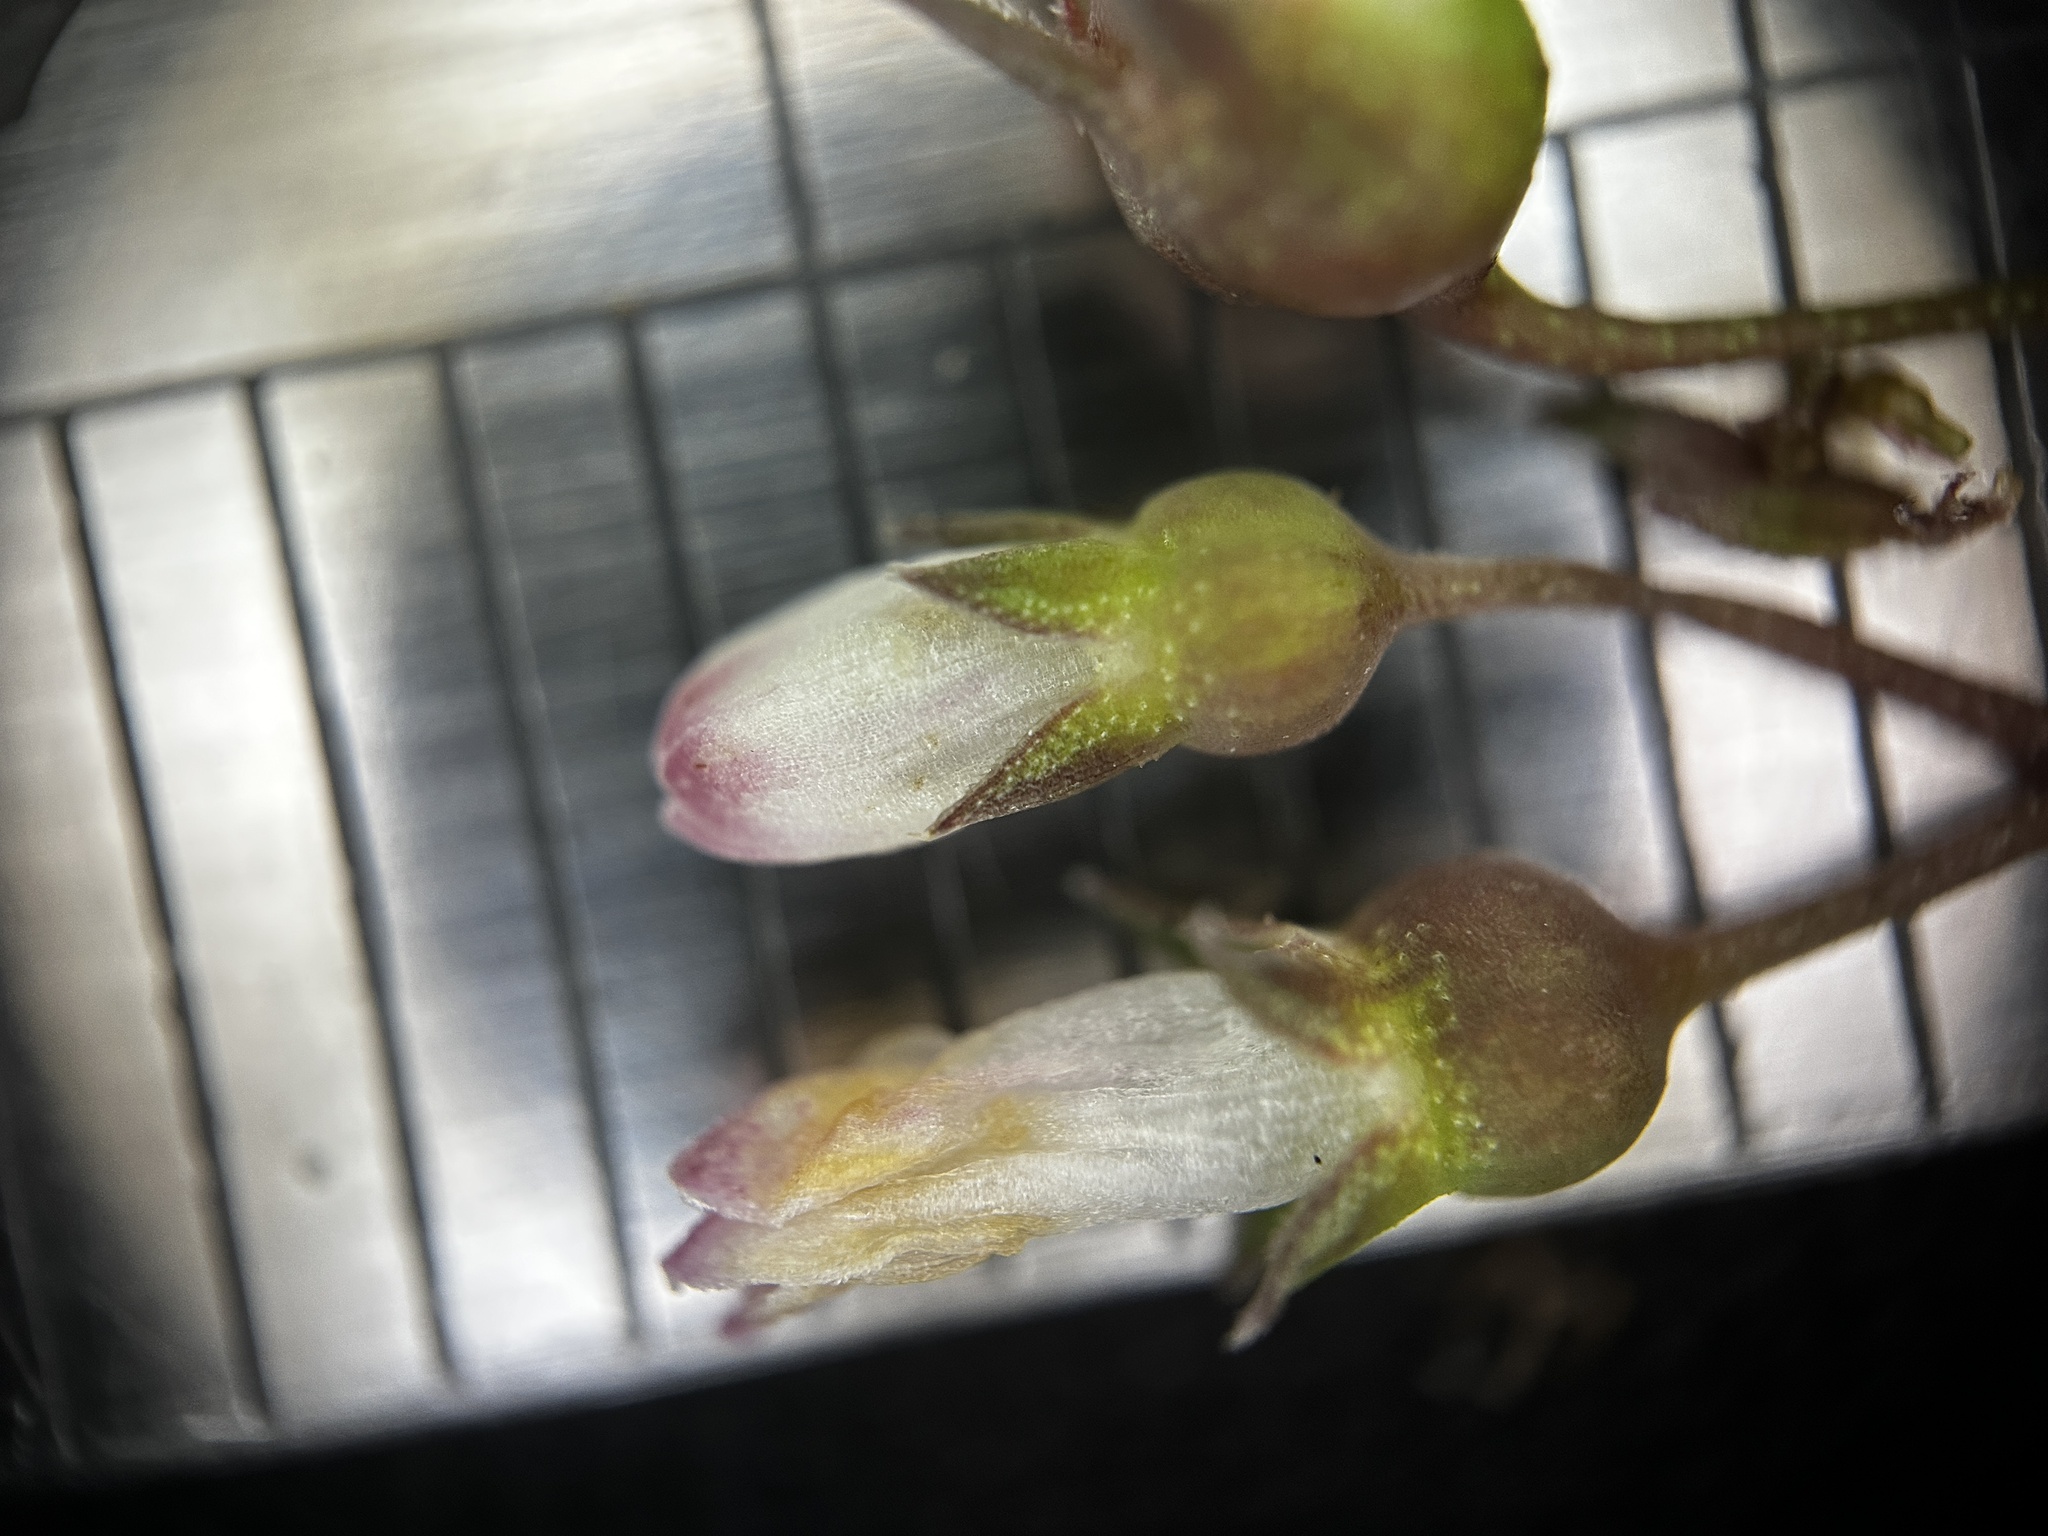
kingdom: Plantae
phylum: Tracheophyta
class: Magnoliopsida
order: Gentianales
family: Rubiaceae
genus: Scleromitrion
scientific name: Scleromitrion diffusum
